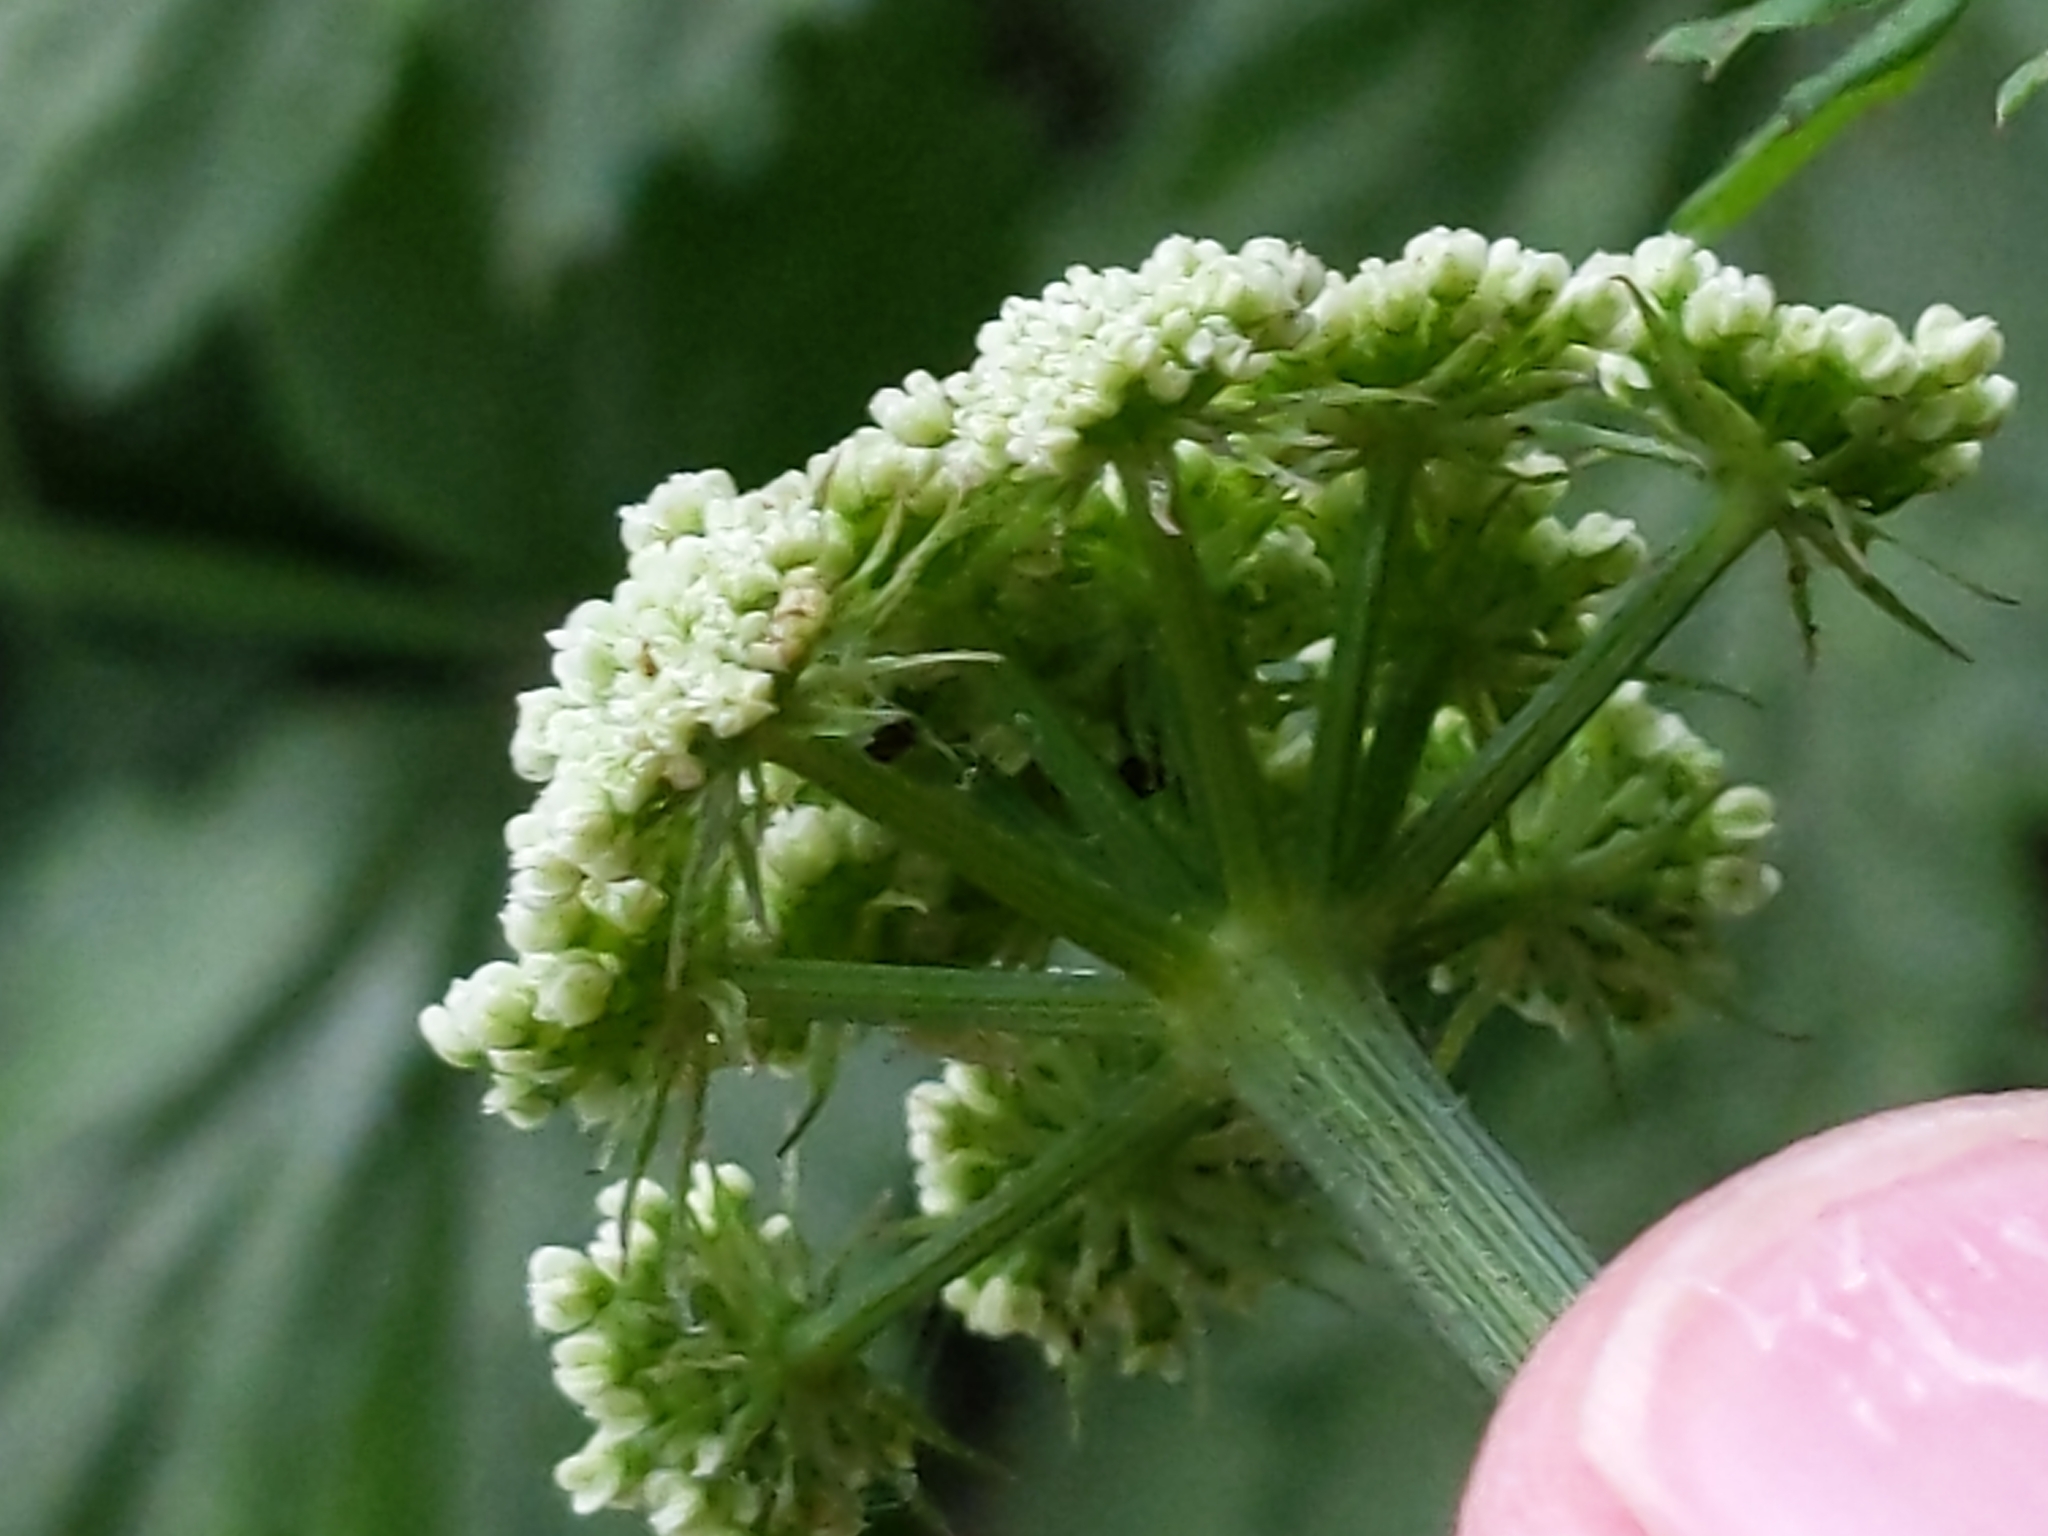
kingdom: Plantae
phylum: Tracheophyta
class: Magnoliopsida
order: Apiales
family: Apiaceae
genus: Oenanthe
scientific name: Oenanthe sarmentosa
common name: American water-parsley
